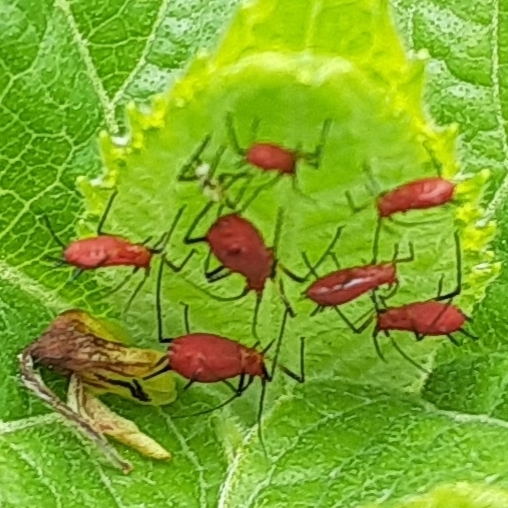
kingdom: Animalia
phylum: Arthropoda
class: Insecta
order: Hemiptera
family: Aphididae
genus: Uroleucon
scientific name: Uroleucon
